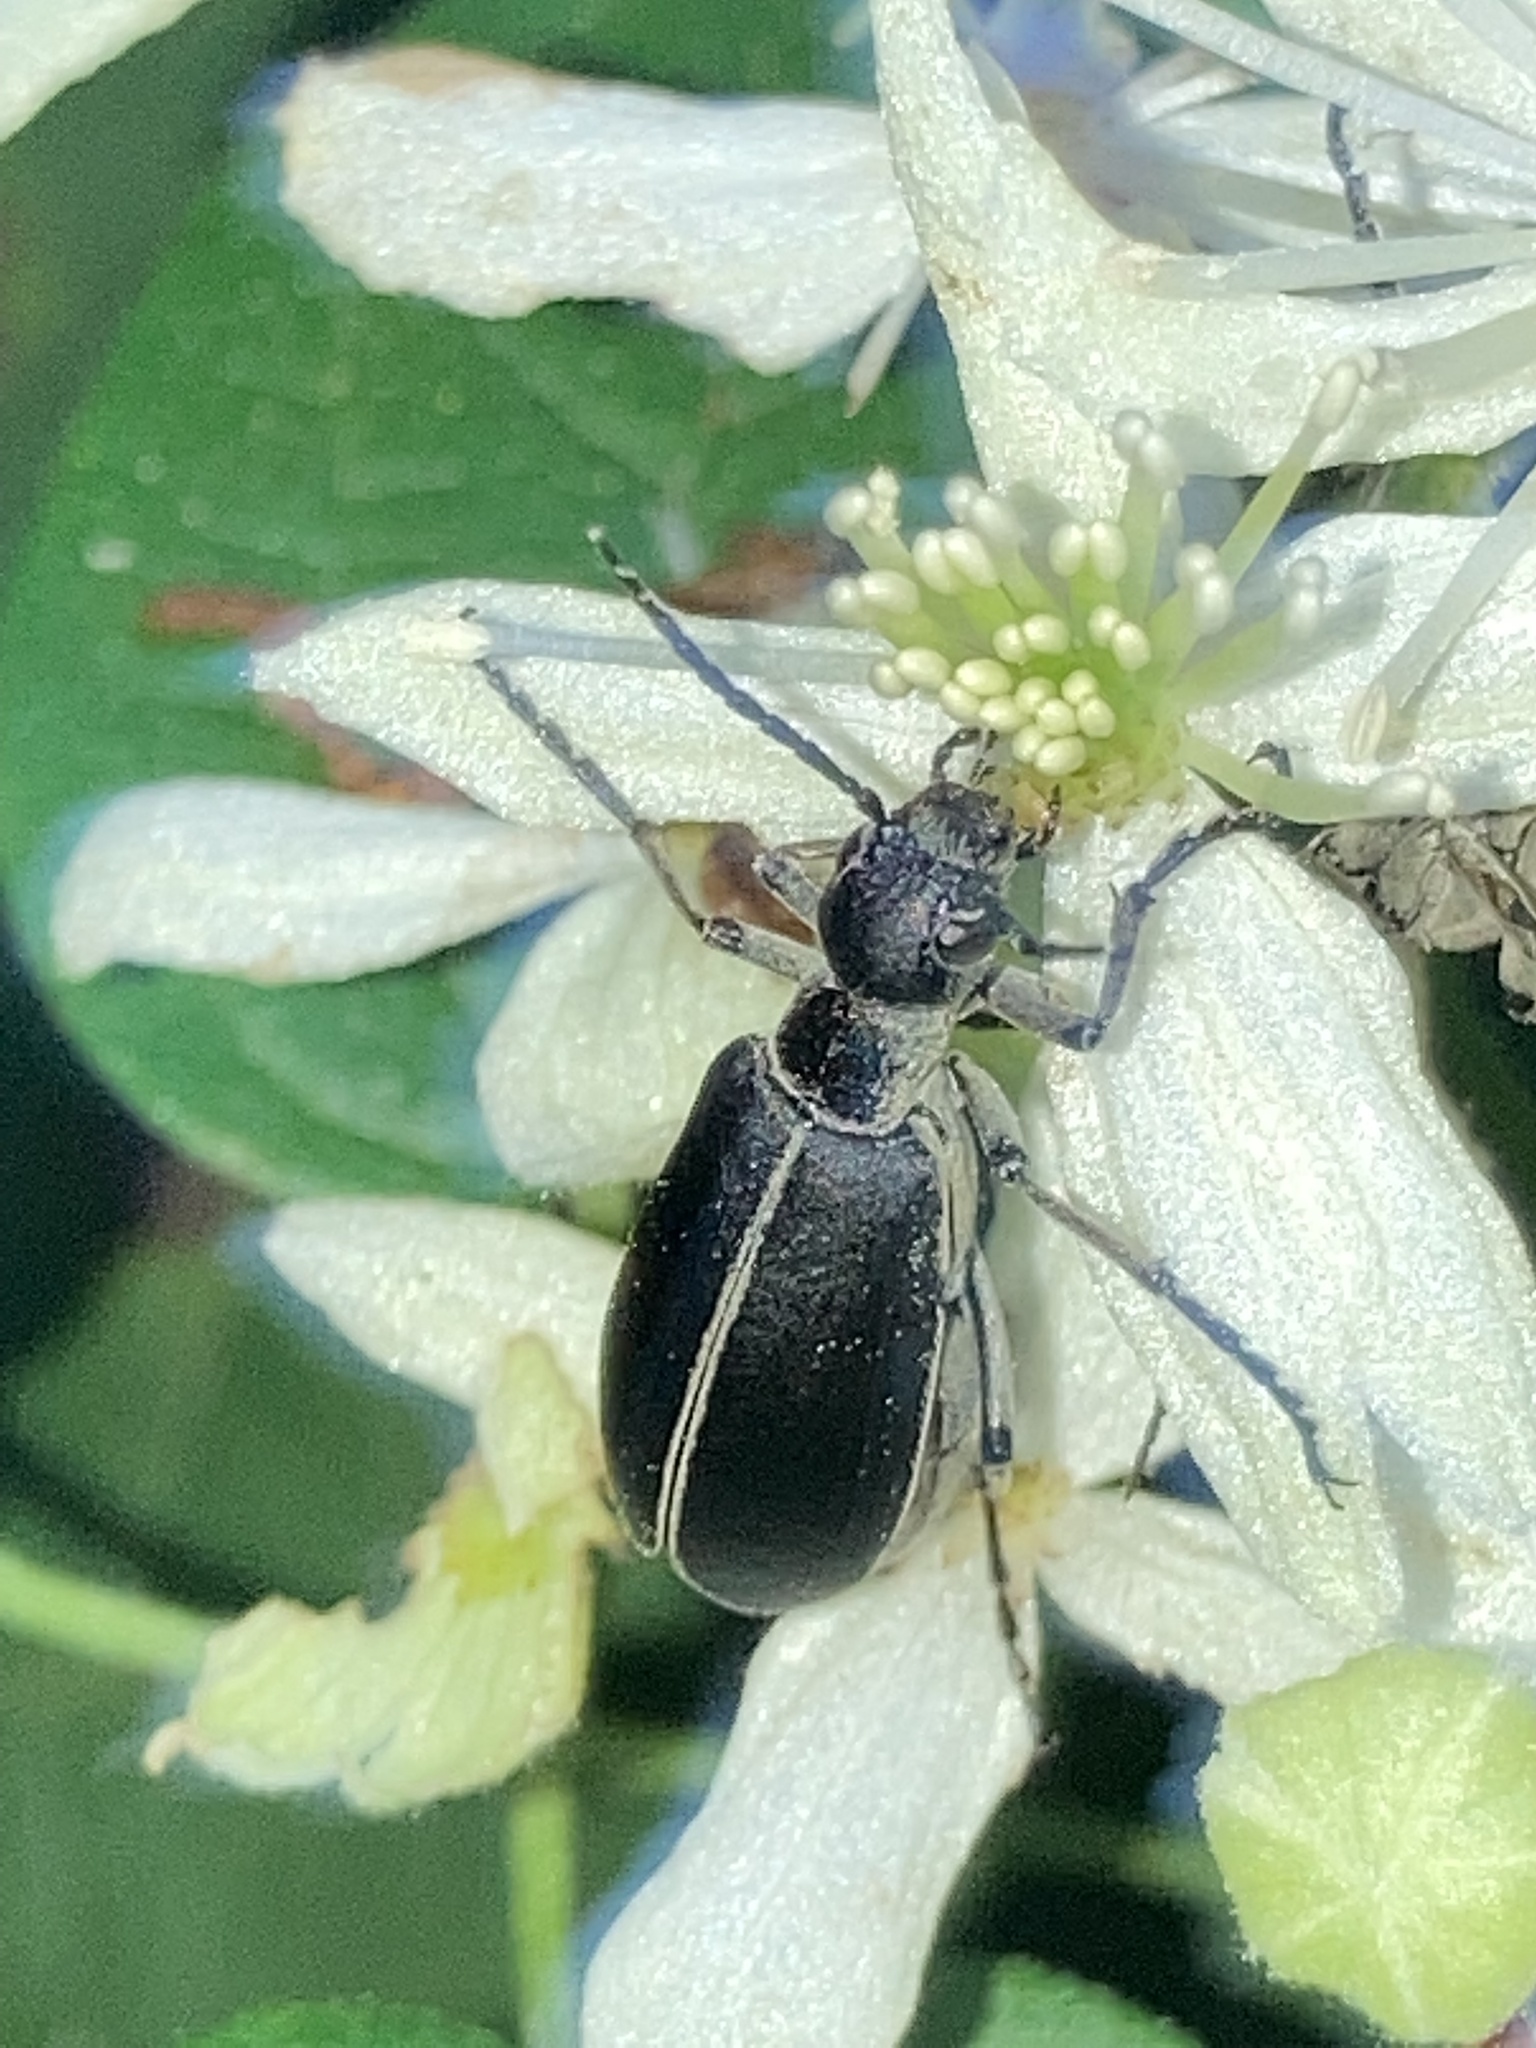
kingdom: Animalia
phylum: Arthropoda
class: Insecta
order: Coleoptera
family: Meloidae
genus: Epicauta
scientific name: Epicauta funebris
